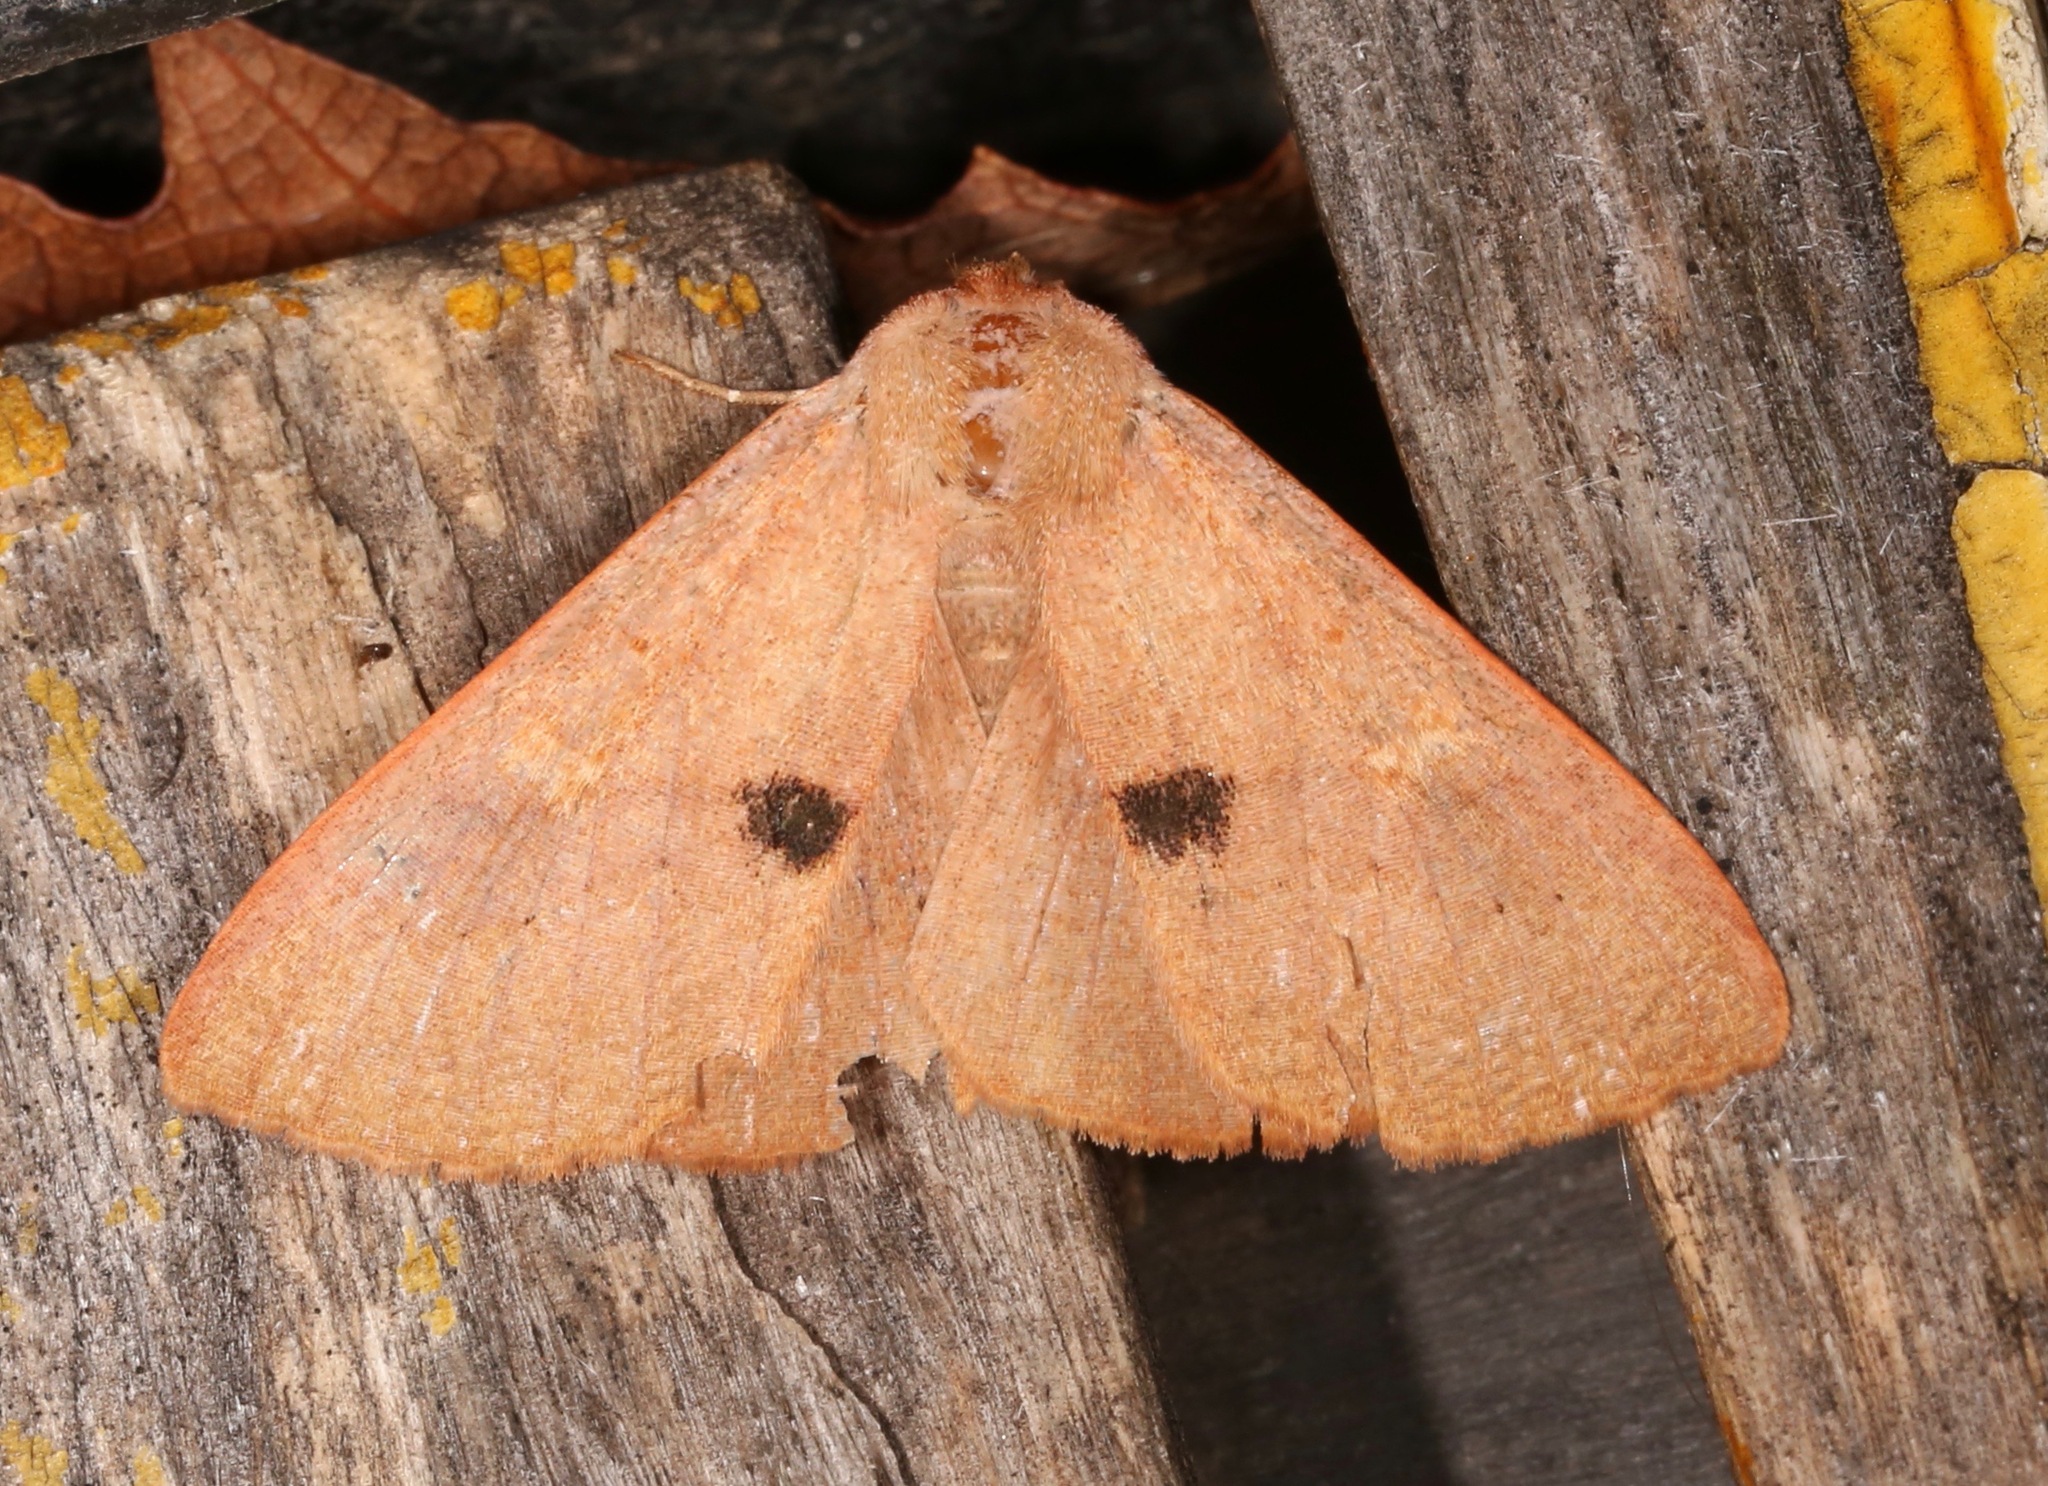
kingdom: Animalia
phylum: Arthropoda
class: Insecta
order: Lepidoptera
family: Erebidae
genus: Panopoda
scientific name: Panopoda rigida
